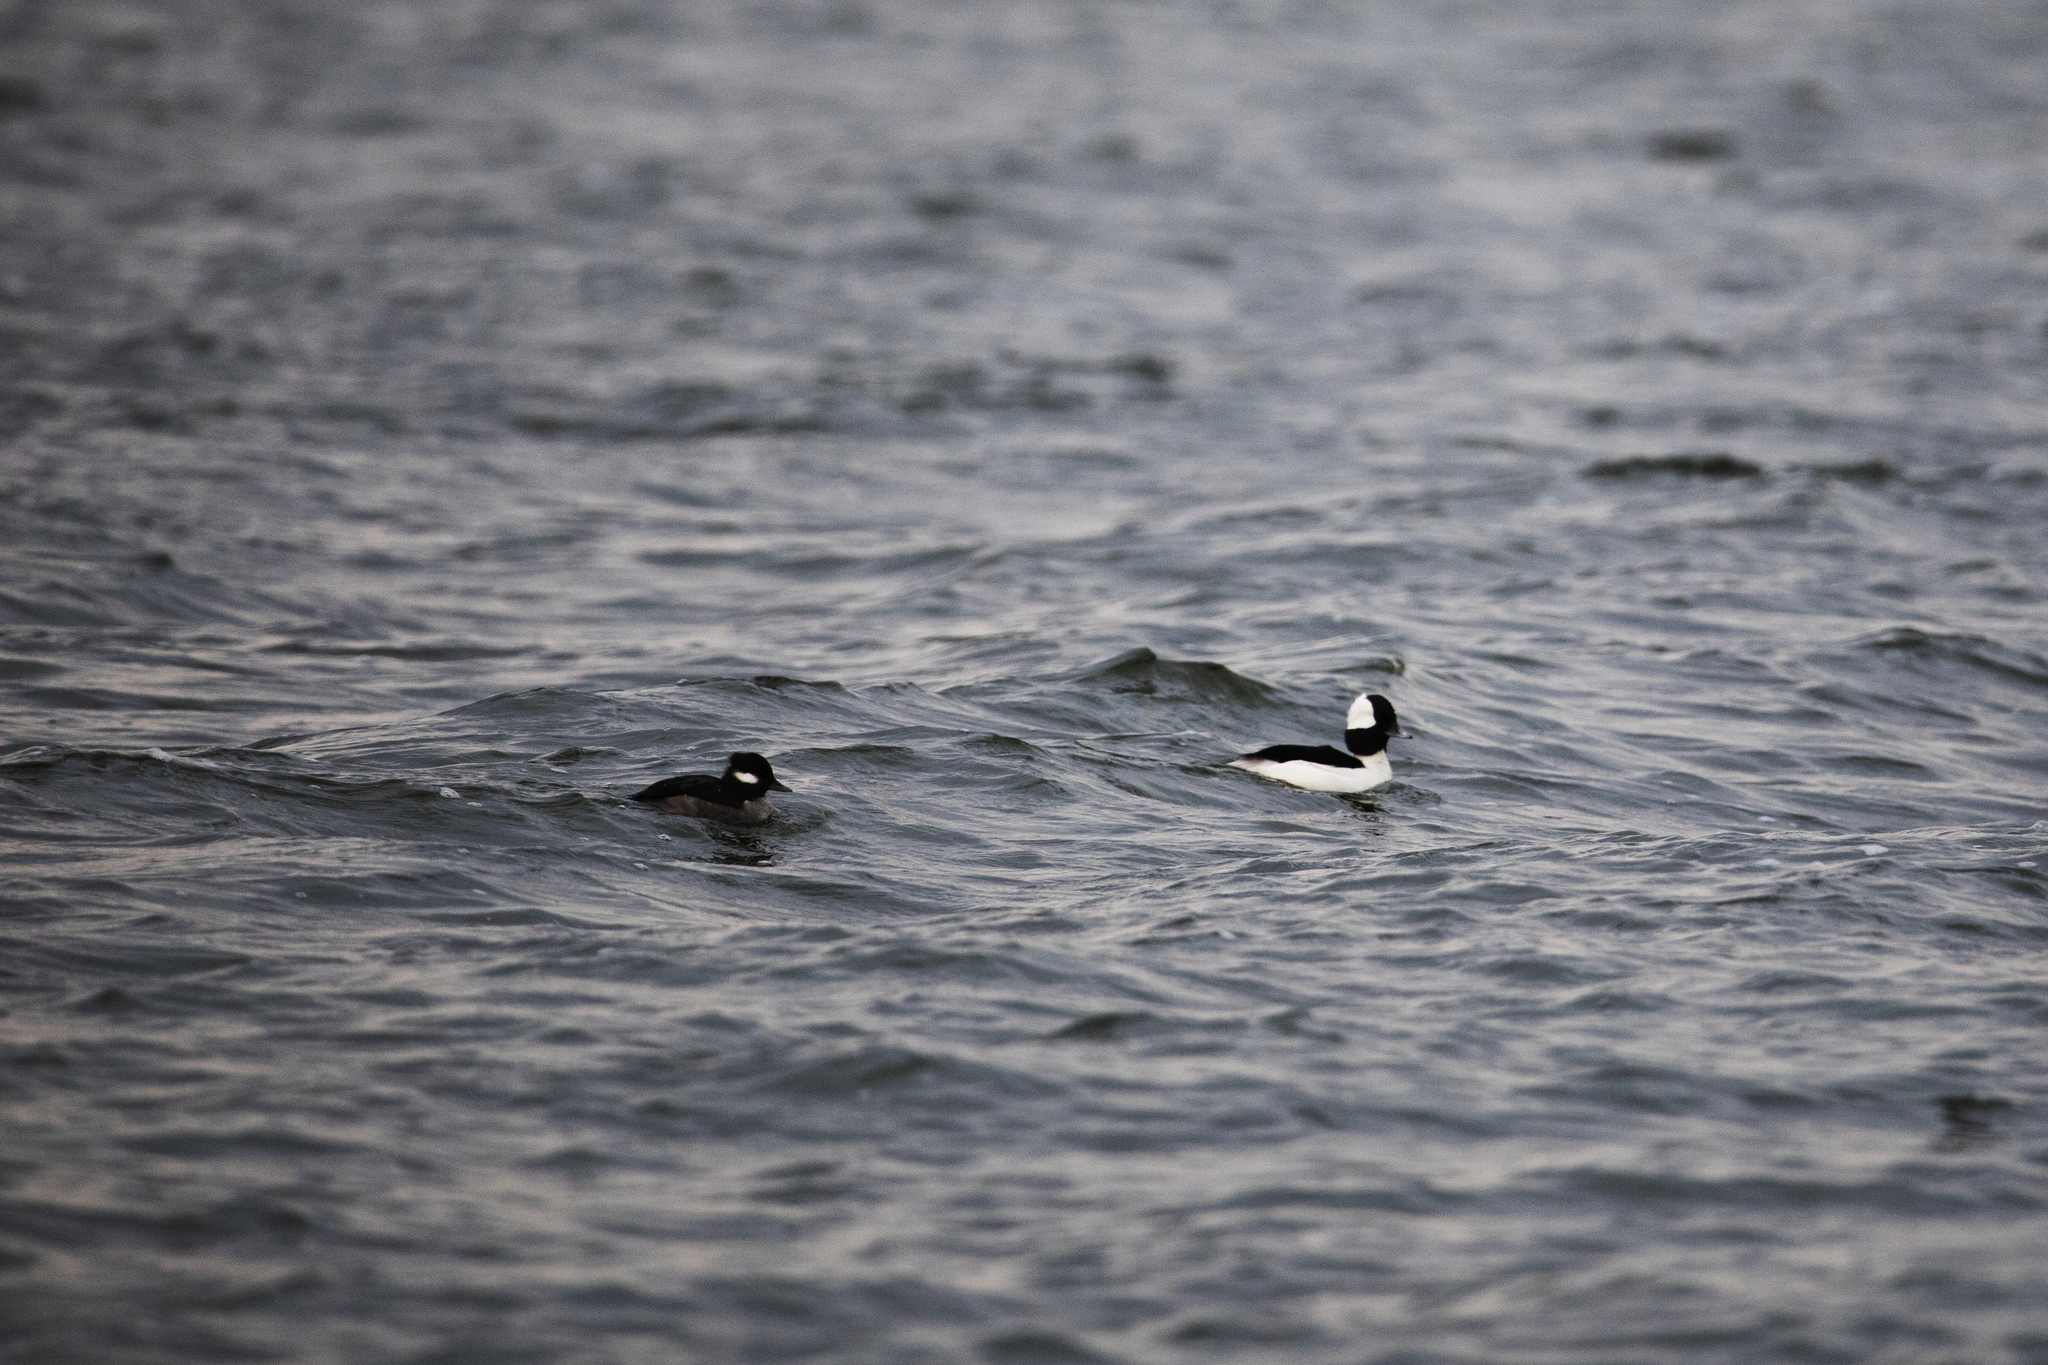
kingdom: Animalia
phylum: Chordata
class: Aves
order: Anseriformes
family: Anatidae
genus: Bucephala
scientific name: Bucephala albeola
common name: Bufflehead
